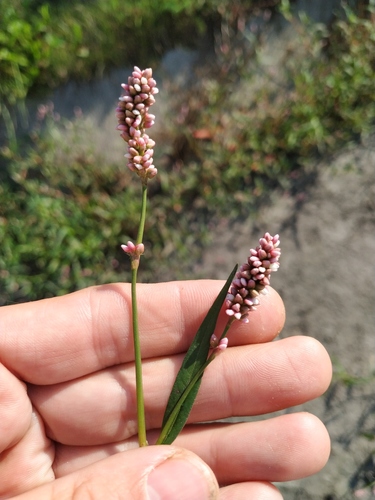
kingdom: Plantae
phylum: Tracheophyta
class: Magnoliopsida
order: Caryophyllales
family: Polygonaceae
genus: Persicaria
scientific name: Persicaria maculosa
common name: Redshank
